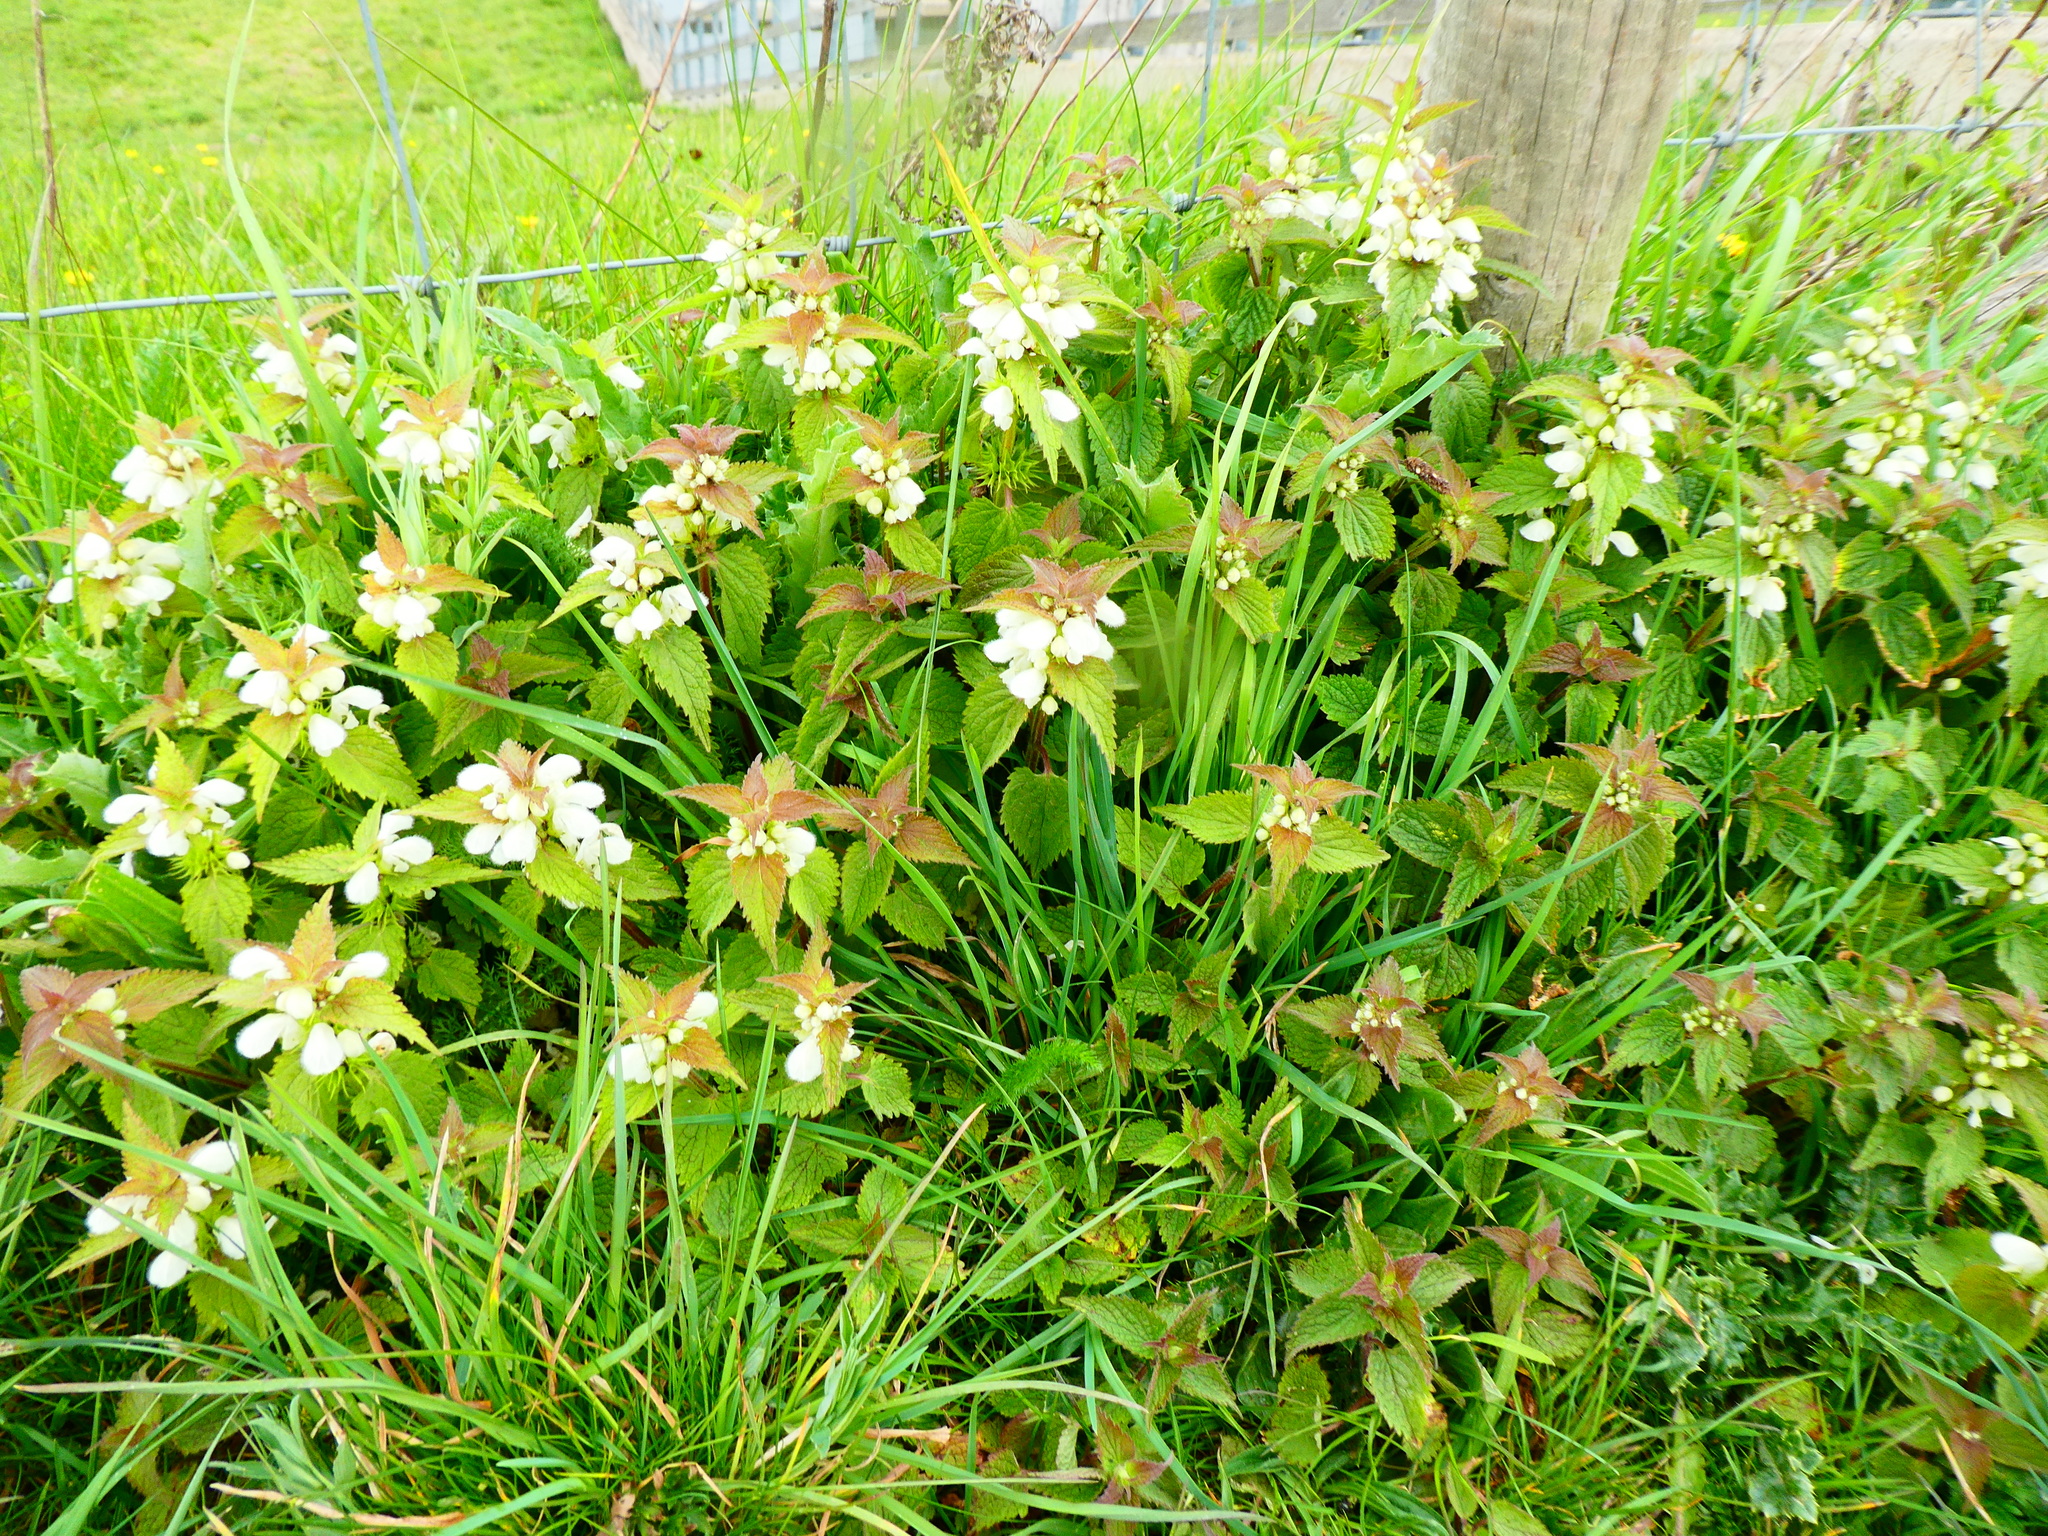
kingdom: Plantae
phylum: Tracheophyta
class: Magnoliopsida
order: Lamiales
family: Lamiaceae
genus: Lamium
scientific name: Lamium album
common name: White dead-nettle
